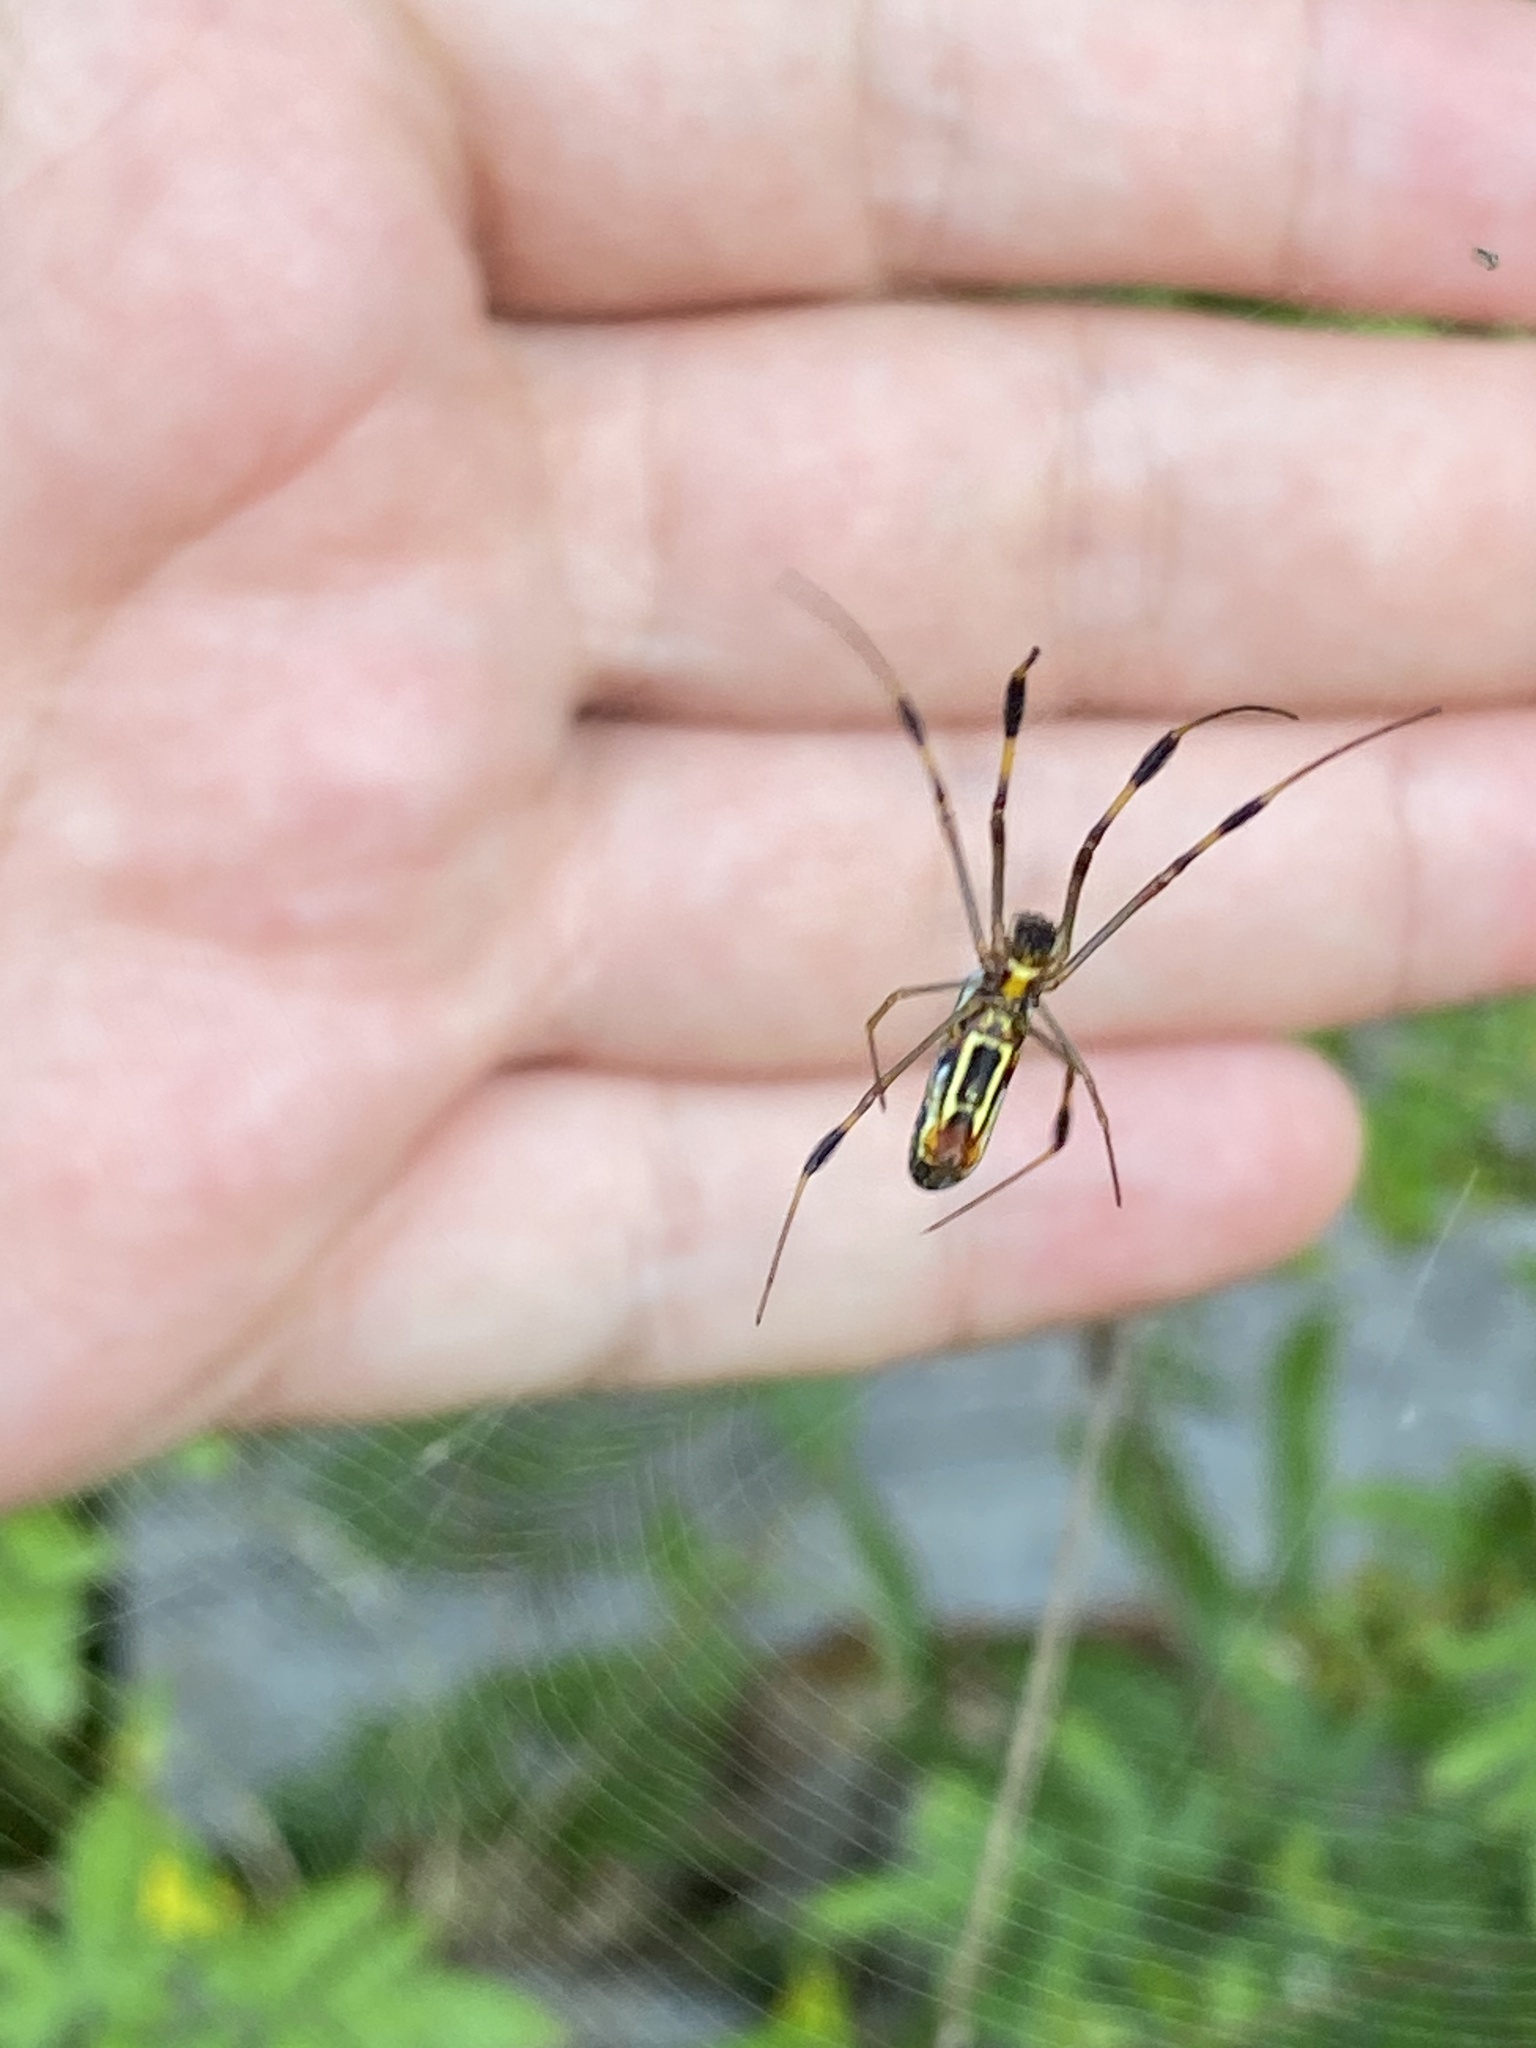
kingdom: Animalia
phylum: Arthropoda
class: Arachnida
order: Araneae
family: Araneidae
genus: Trichonephila
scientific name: Trichonephila clavipes
